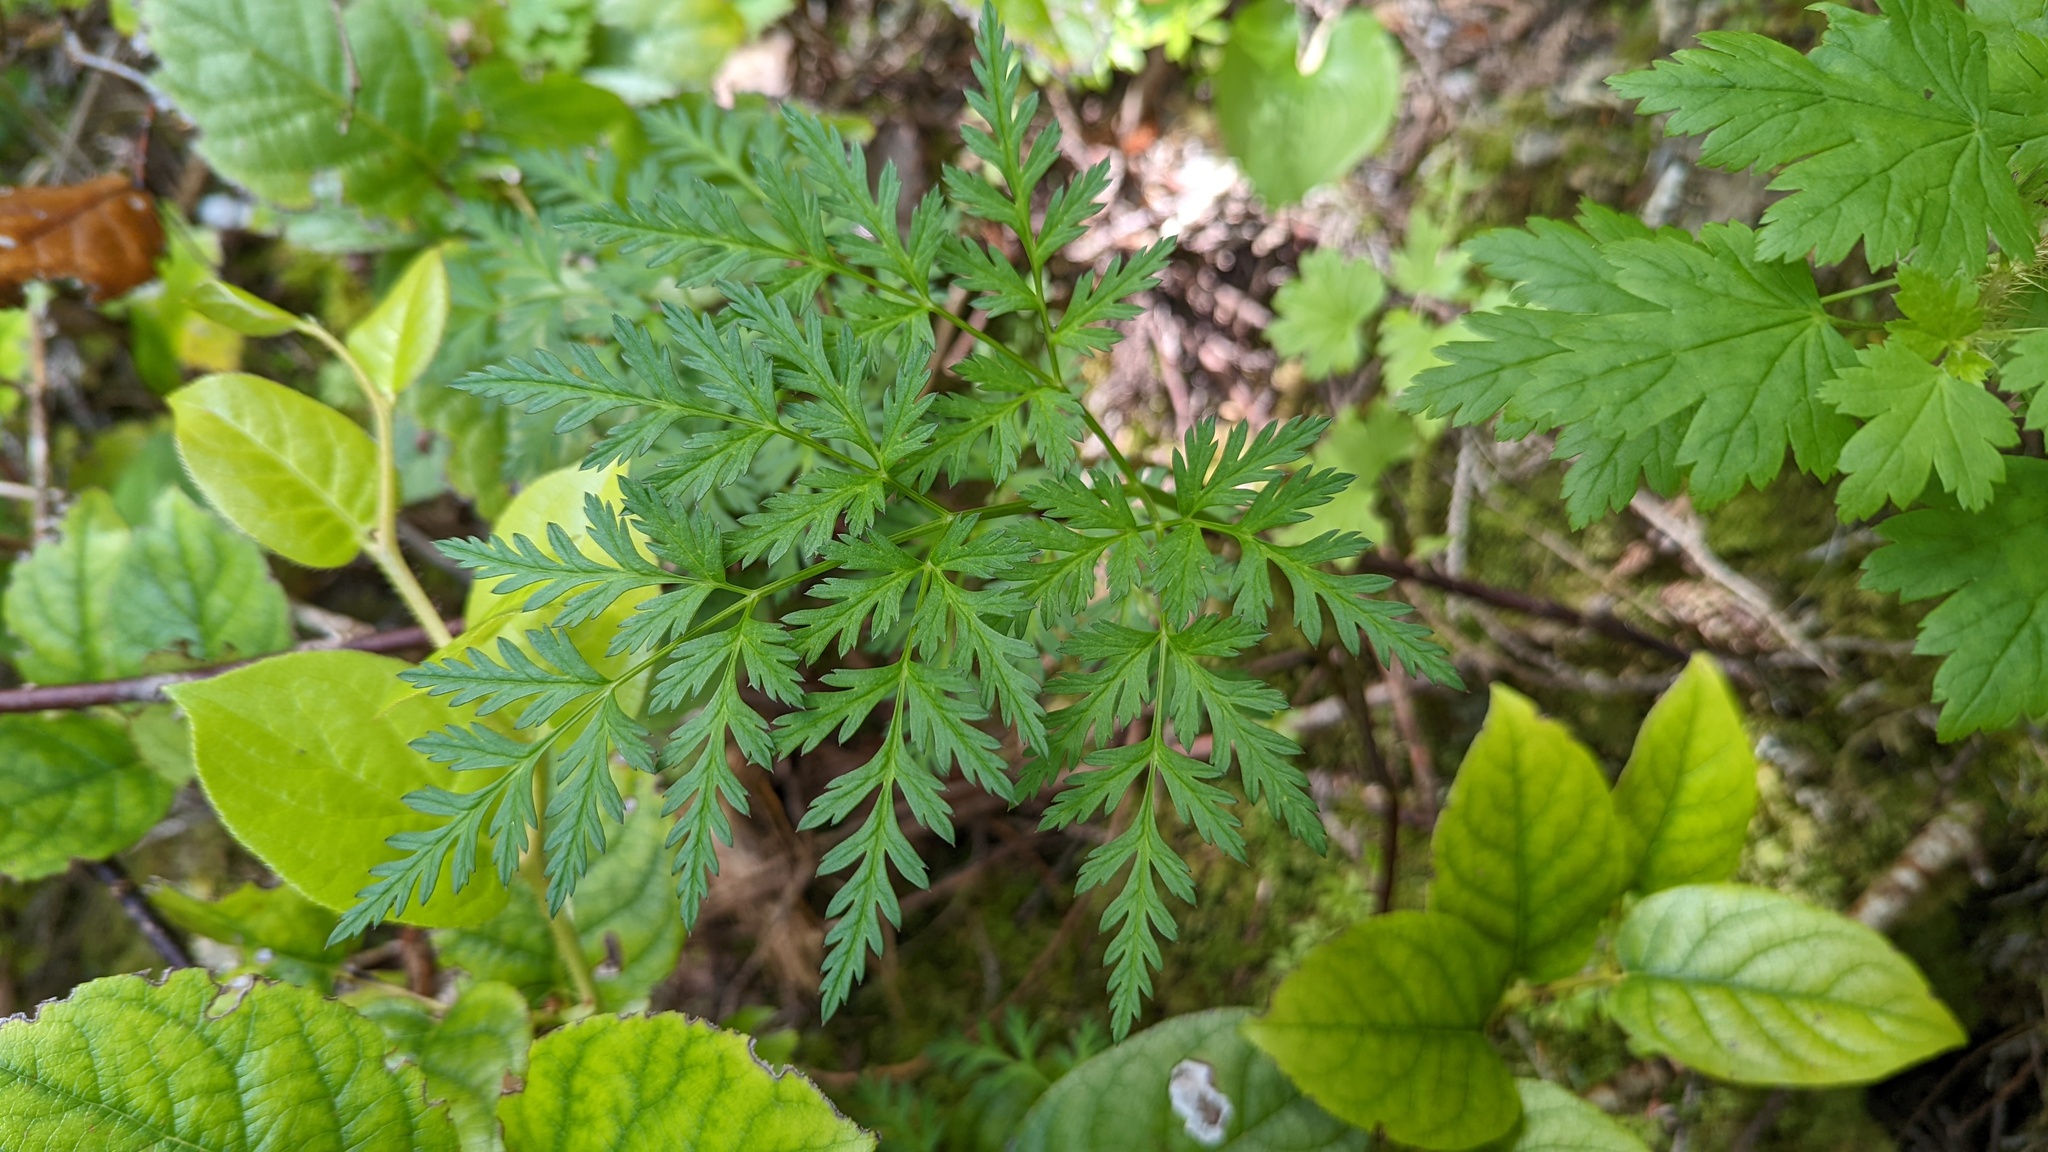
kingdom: Plantae
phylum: Tracheophyta
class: Magnoliopsida
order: Apiales
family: Apiaceae
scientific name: Apiaceae
